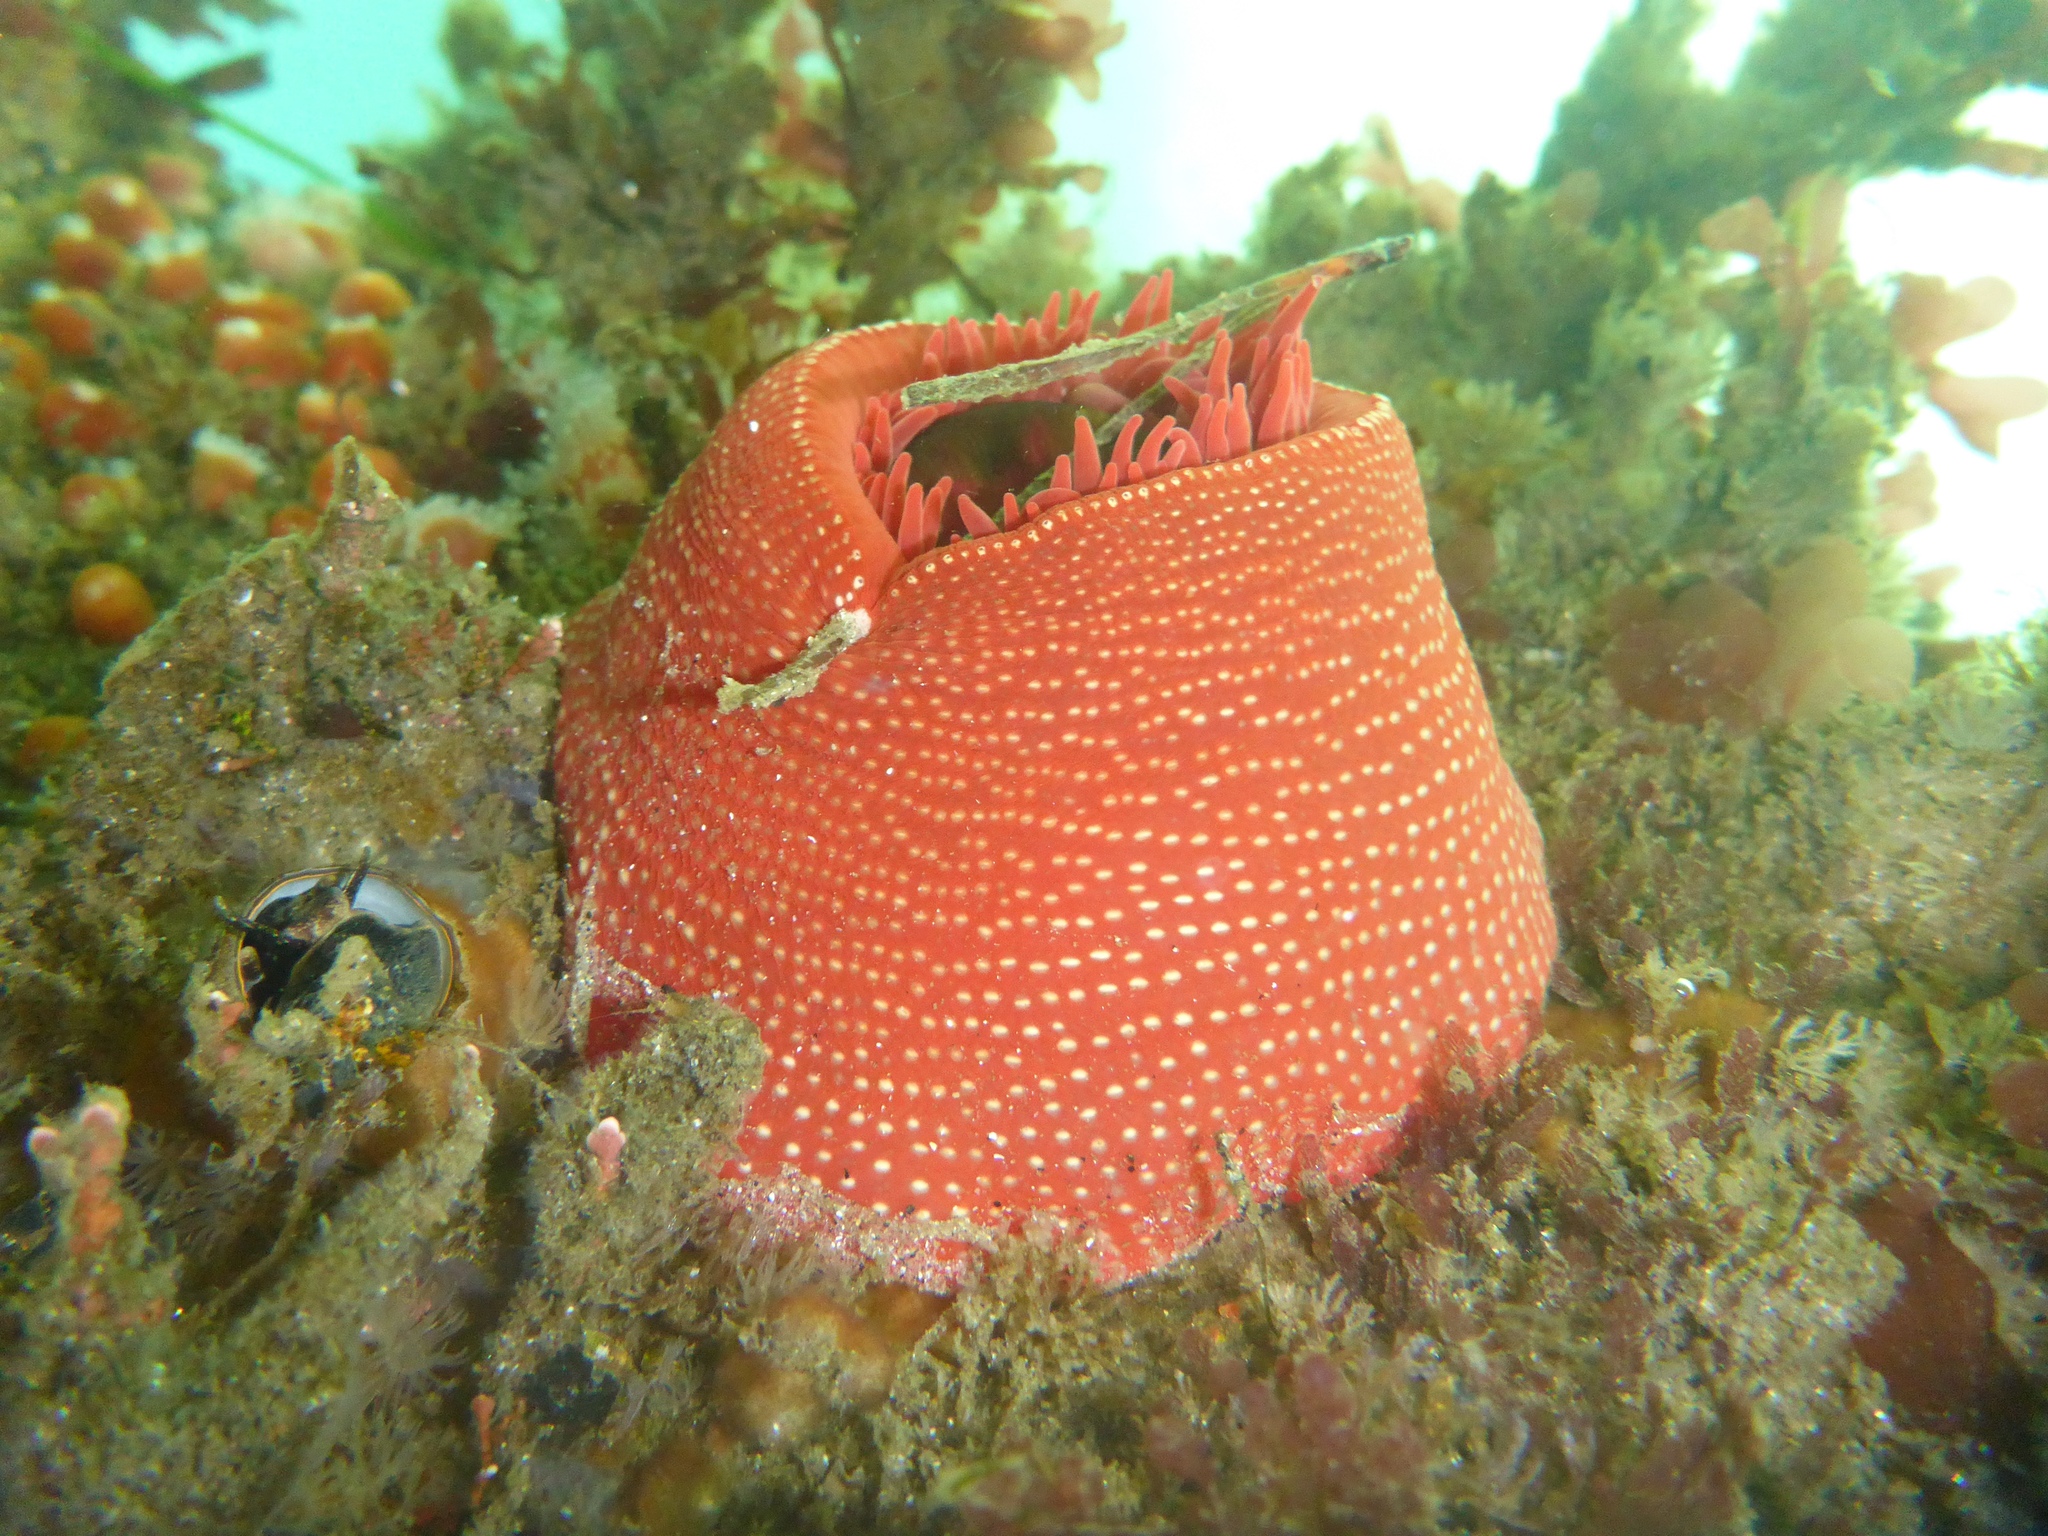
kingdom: Animalia
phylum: Cnidaria
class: Anthozoa
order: Actiniaria
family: Actiniidae
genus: Cribrinopsis
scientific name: Cribrinopsis albopunctata
